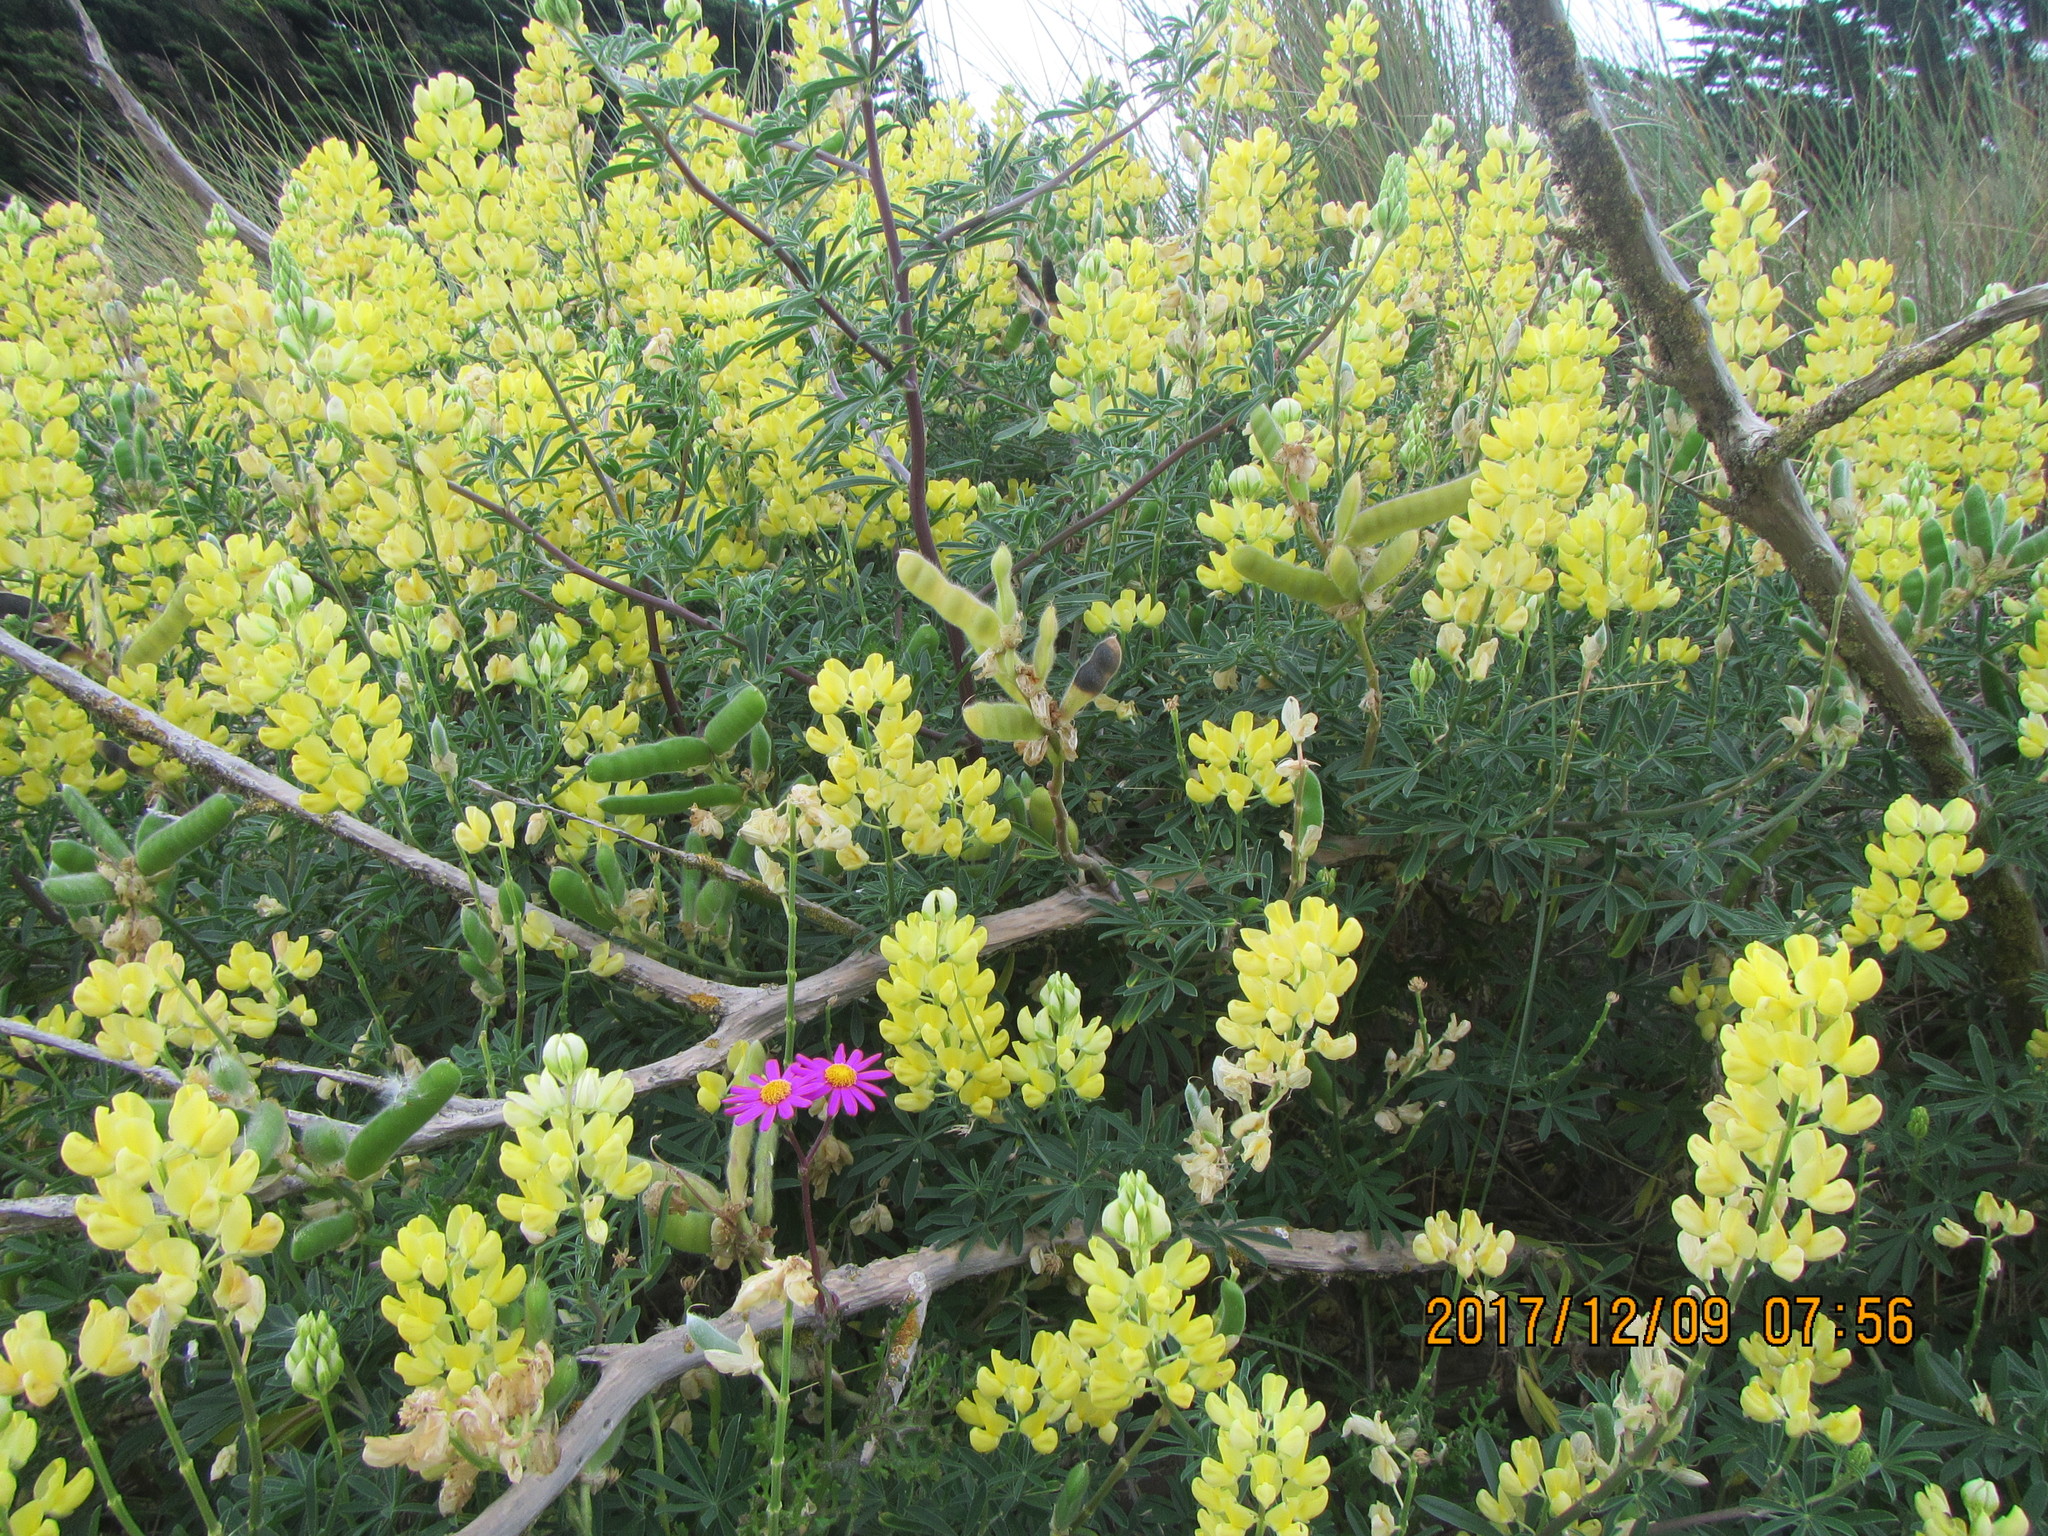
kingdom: Plantae
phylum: Tracheophyta
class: Magnoliopsida
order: Fabales
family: Fabaceae
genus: Lupinus
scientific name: Lupinus arboreus
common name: Yellow bush lupine
